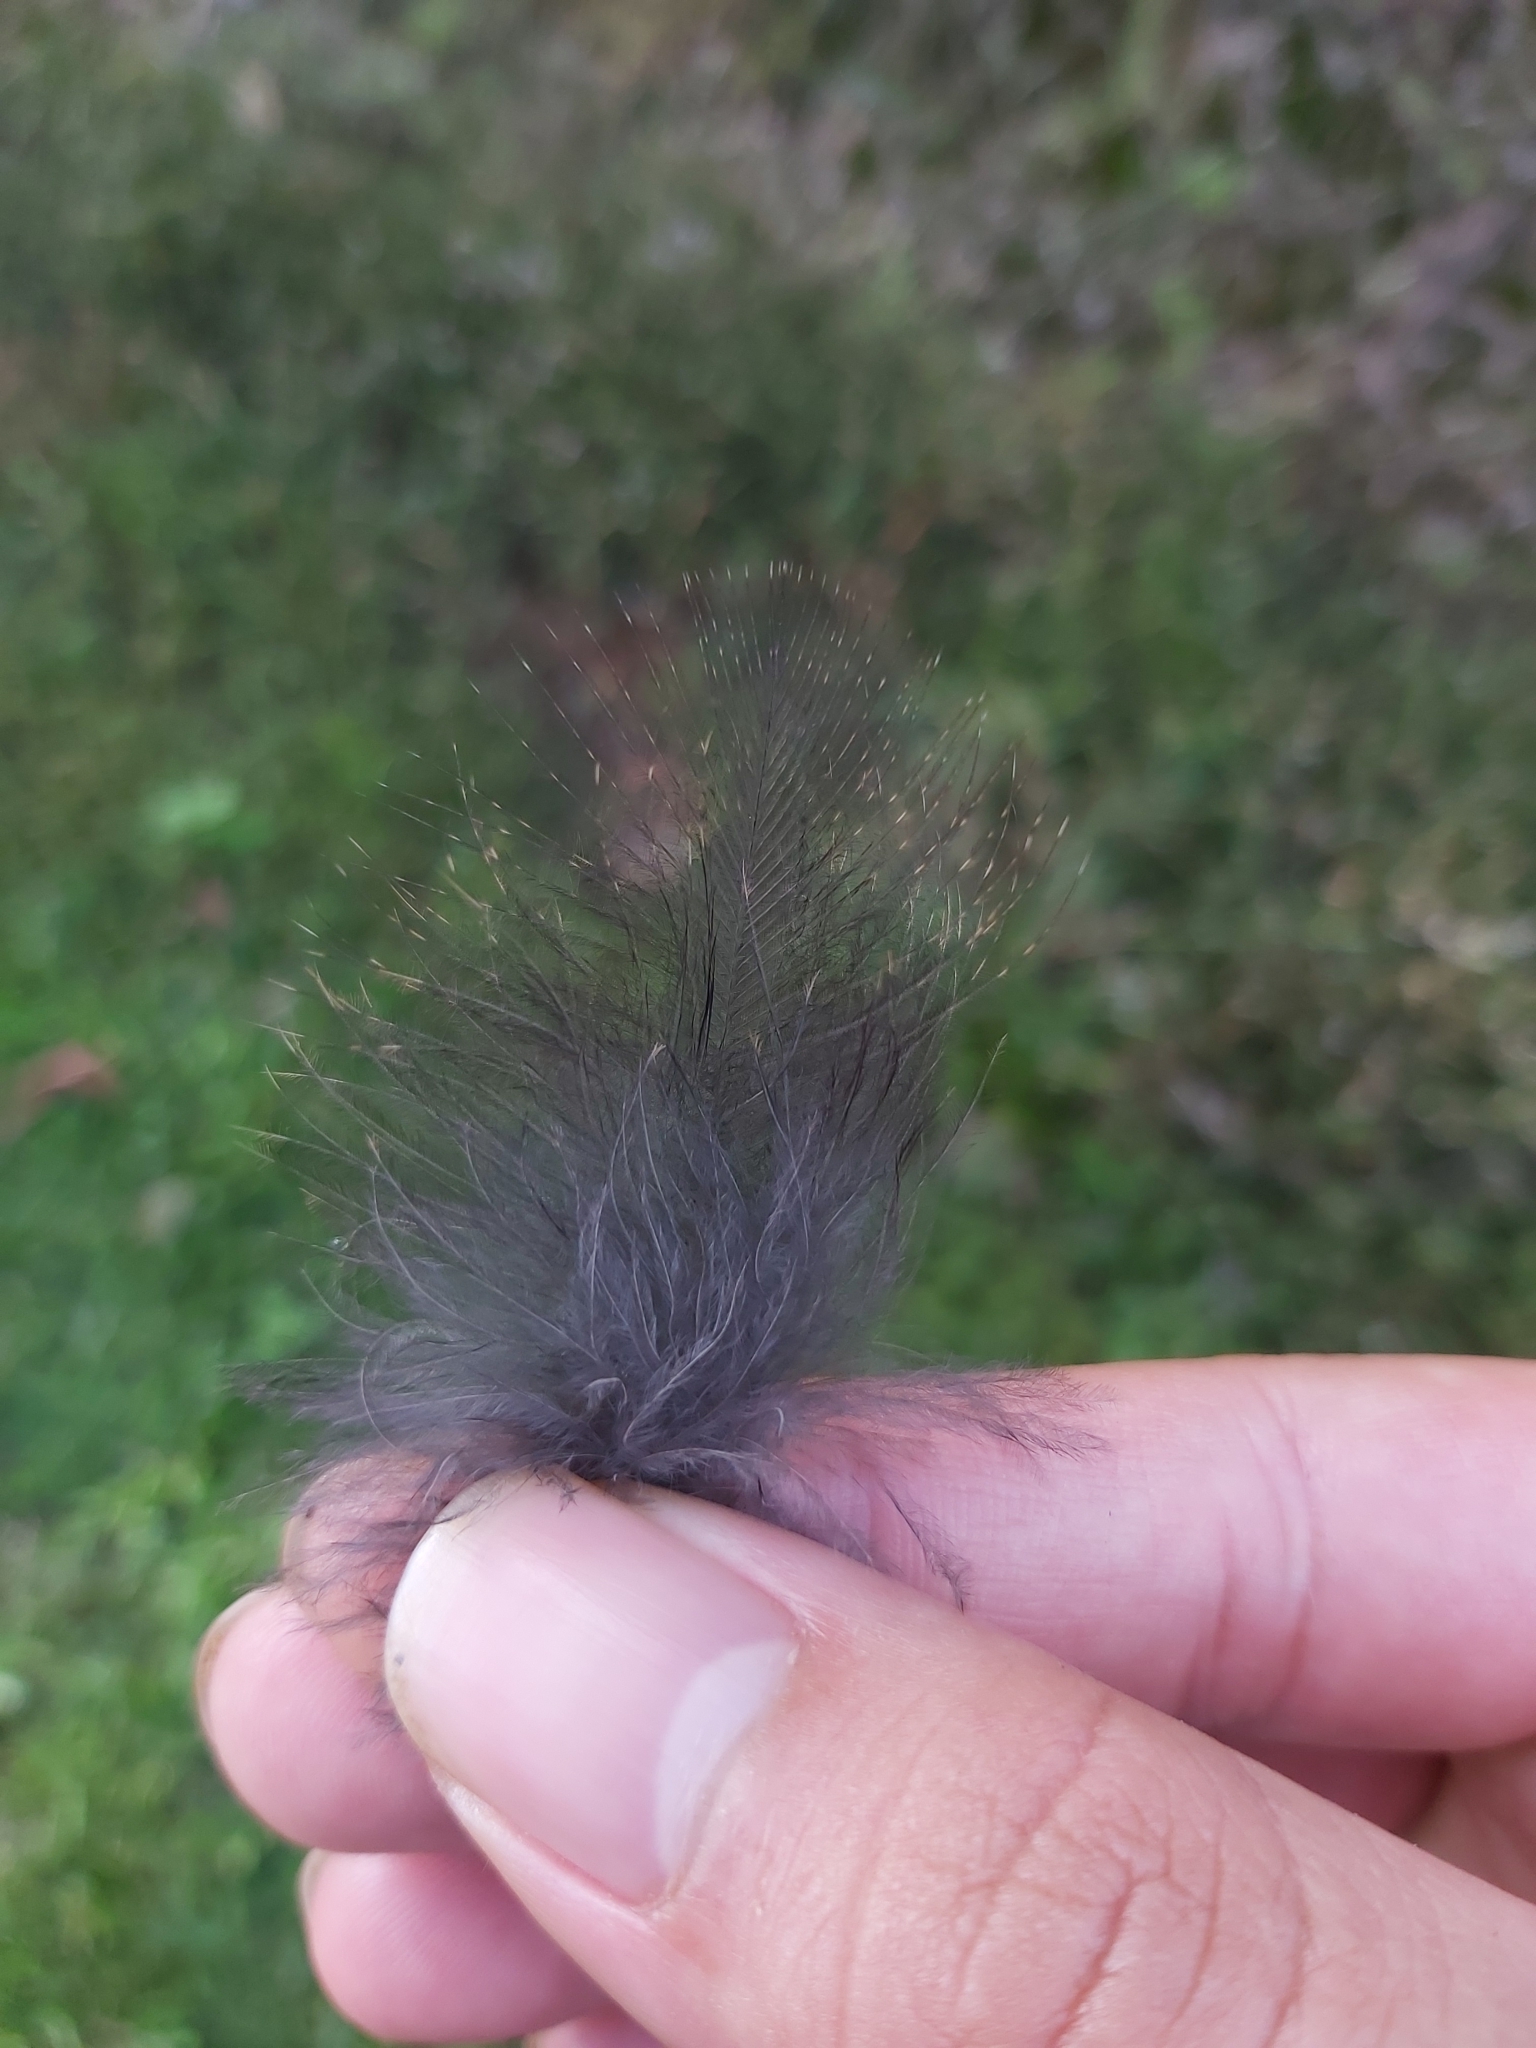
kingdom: Animalia
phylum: Chordata
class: Aves
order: Cuculiformes
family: Cuculidae
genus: Centropus
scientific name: Centropus phasianinus
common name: Pheasant coucal
